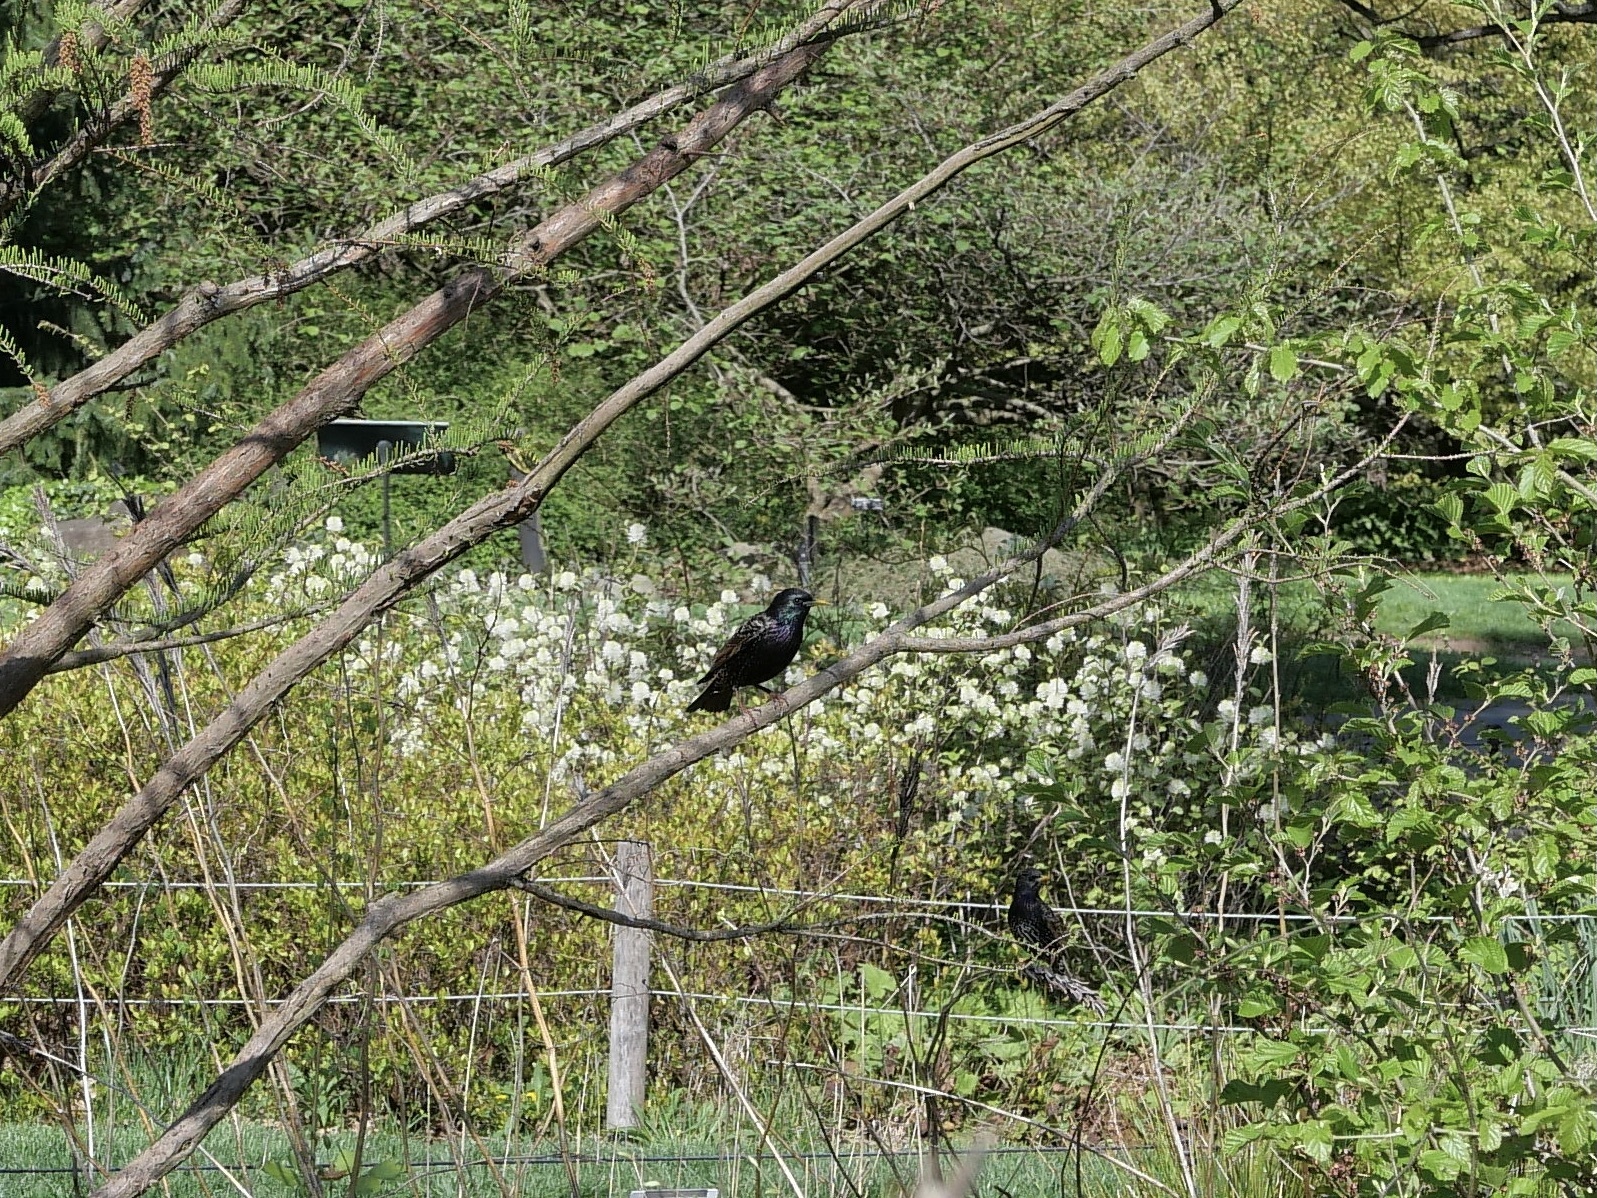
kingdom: Animalia
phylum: Chordata
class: Aves
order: Passeriformes
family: Sturnidae
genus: Sturnus
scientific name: Sturnus vulgaris
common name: Common starling
